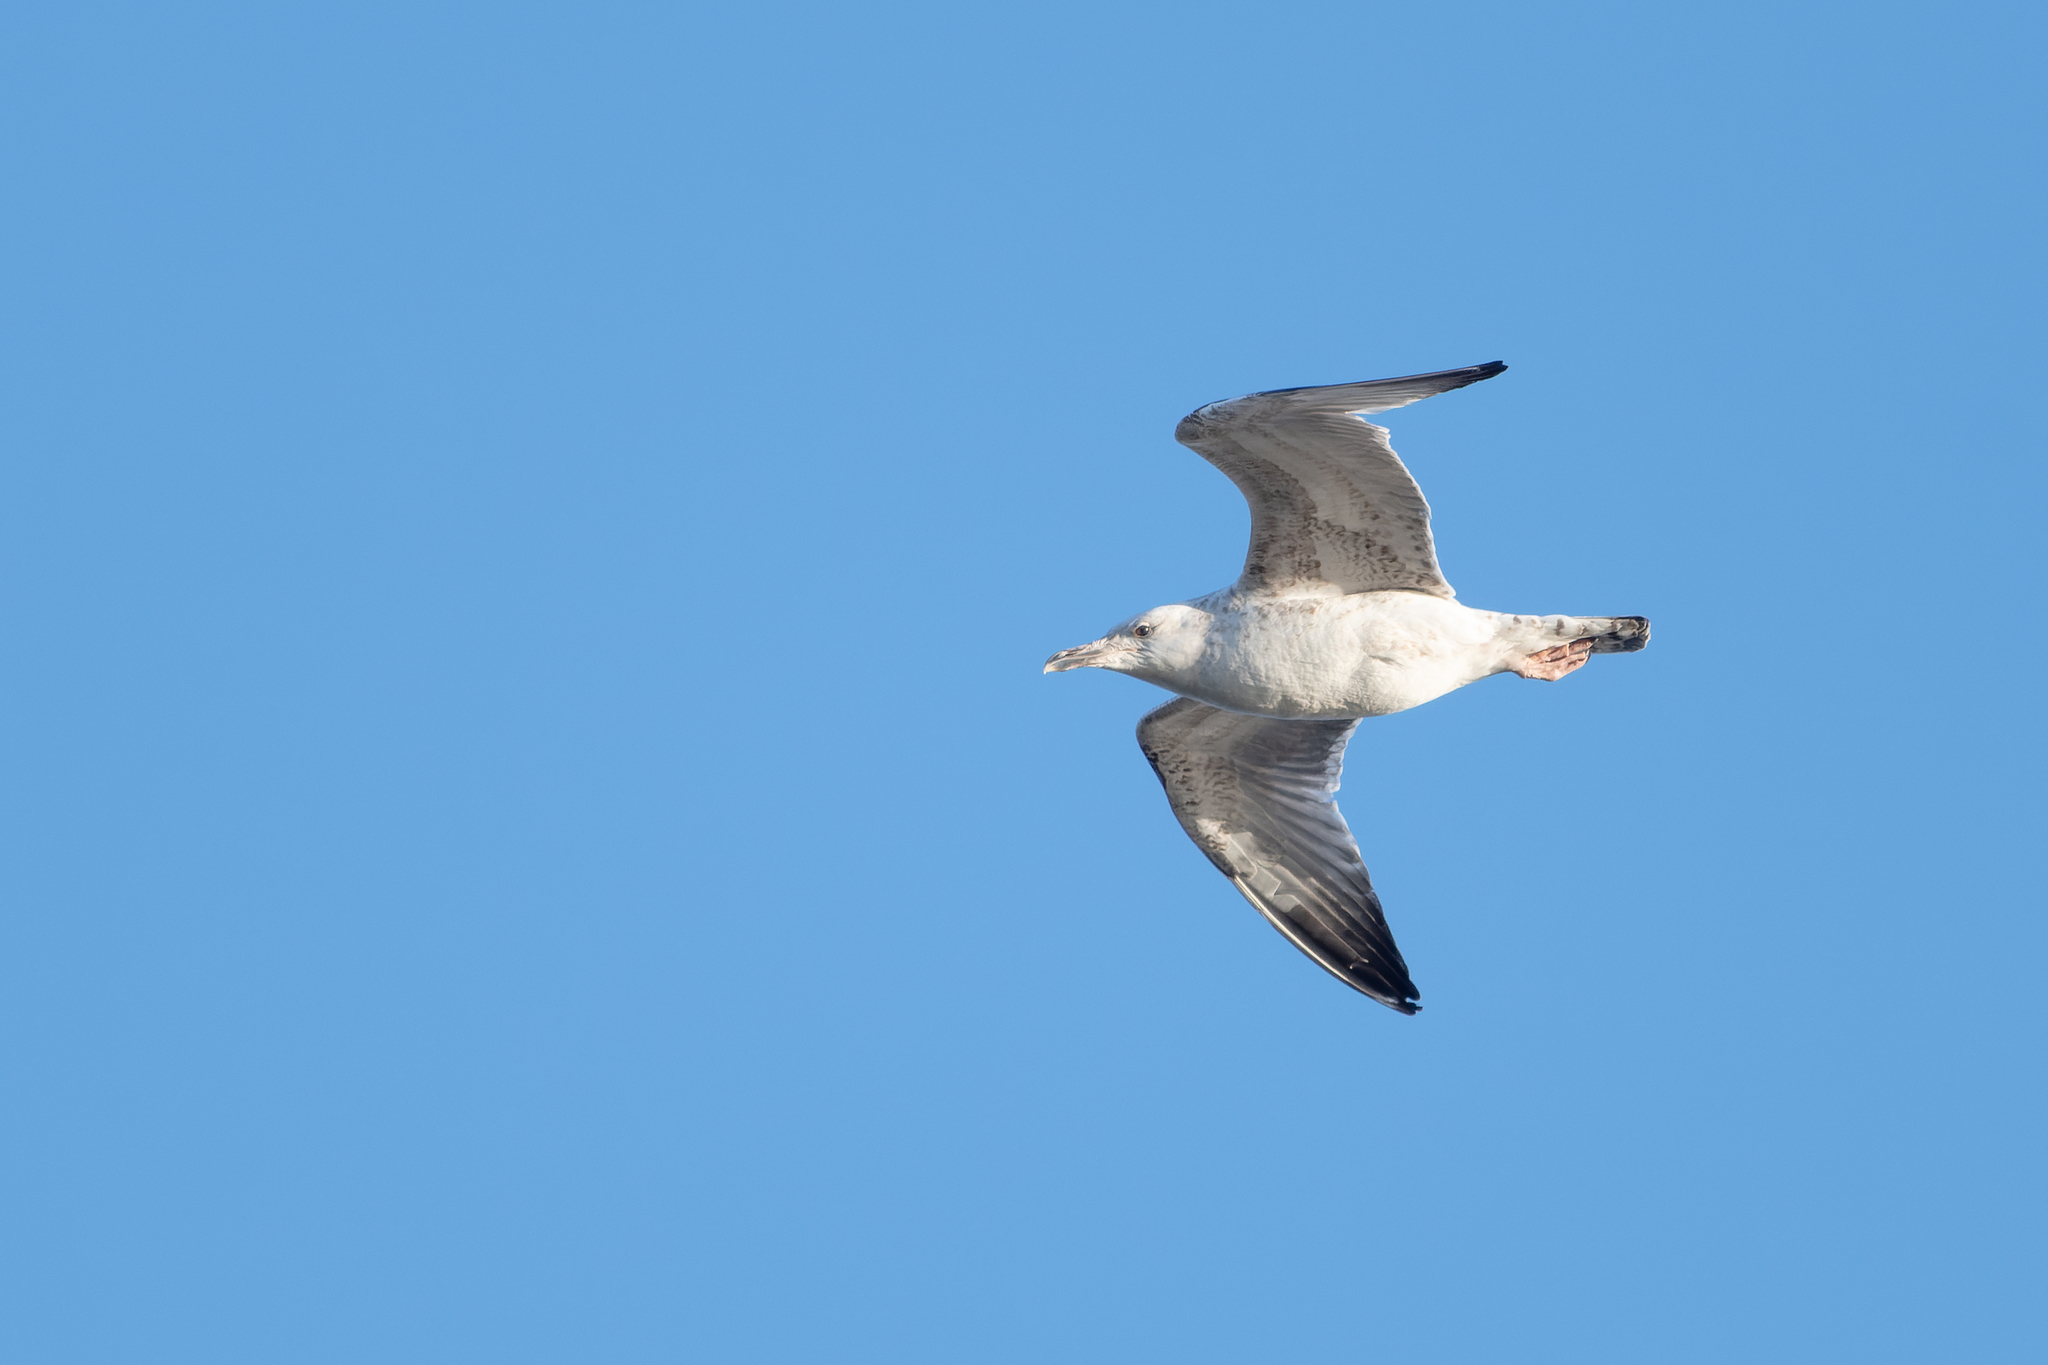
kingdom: Animalia
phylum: Chordata
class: Aves
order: Charadriiformes
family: Laridae
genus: Larus
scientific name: Larus cachinnans
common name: Caspian gull
